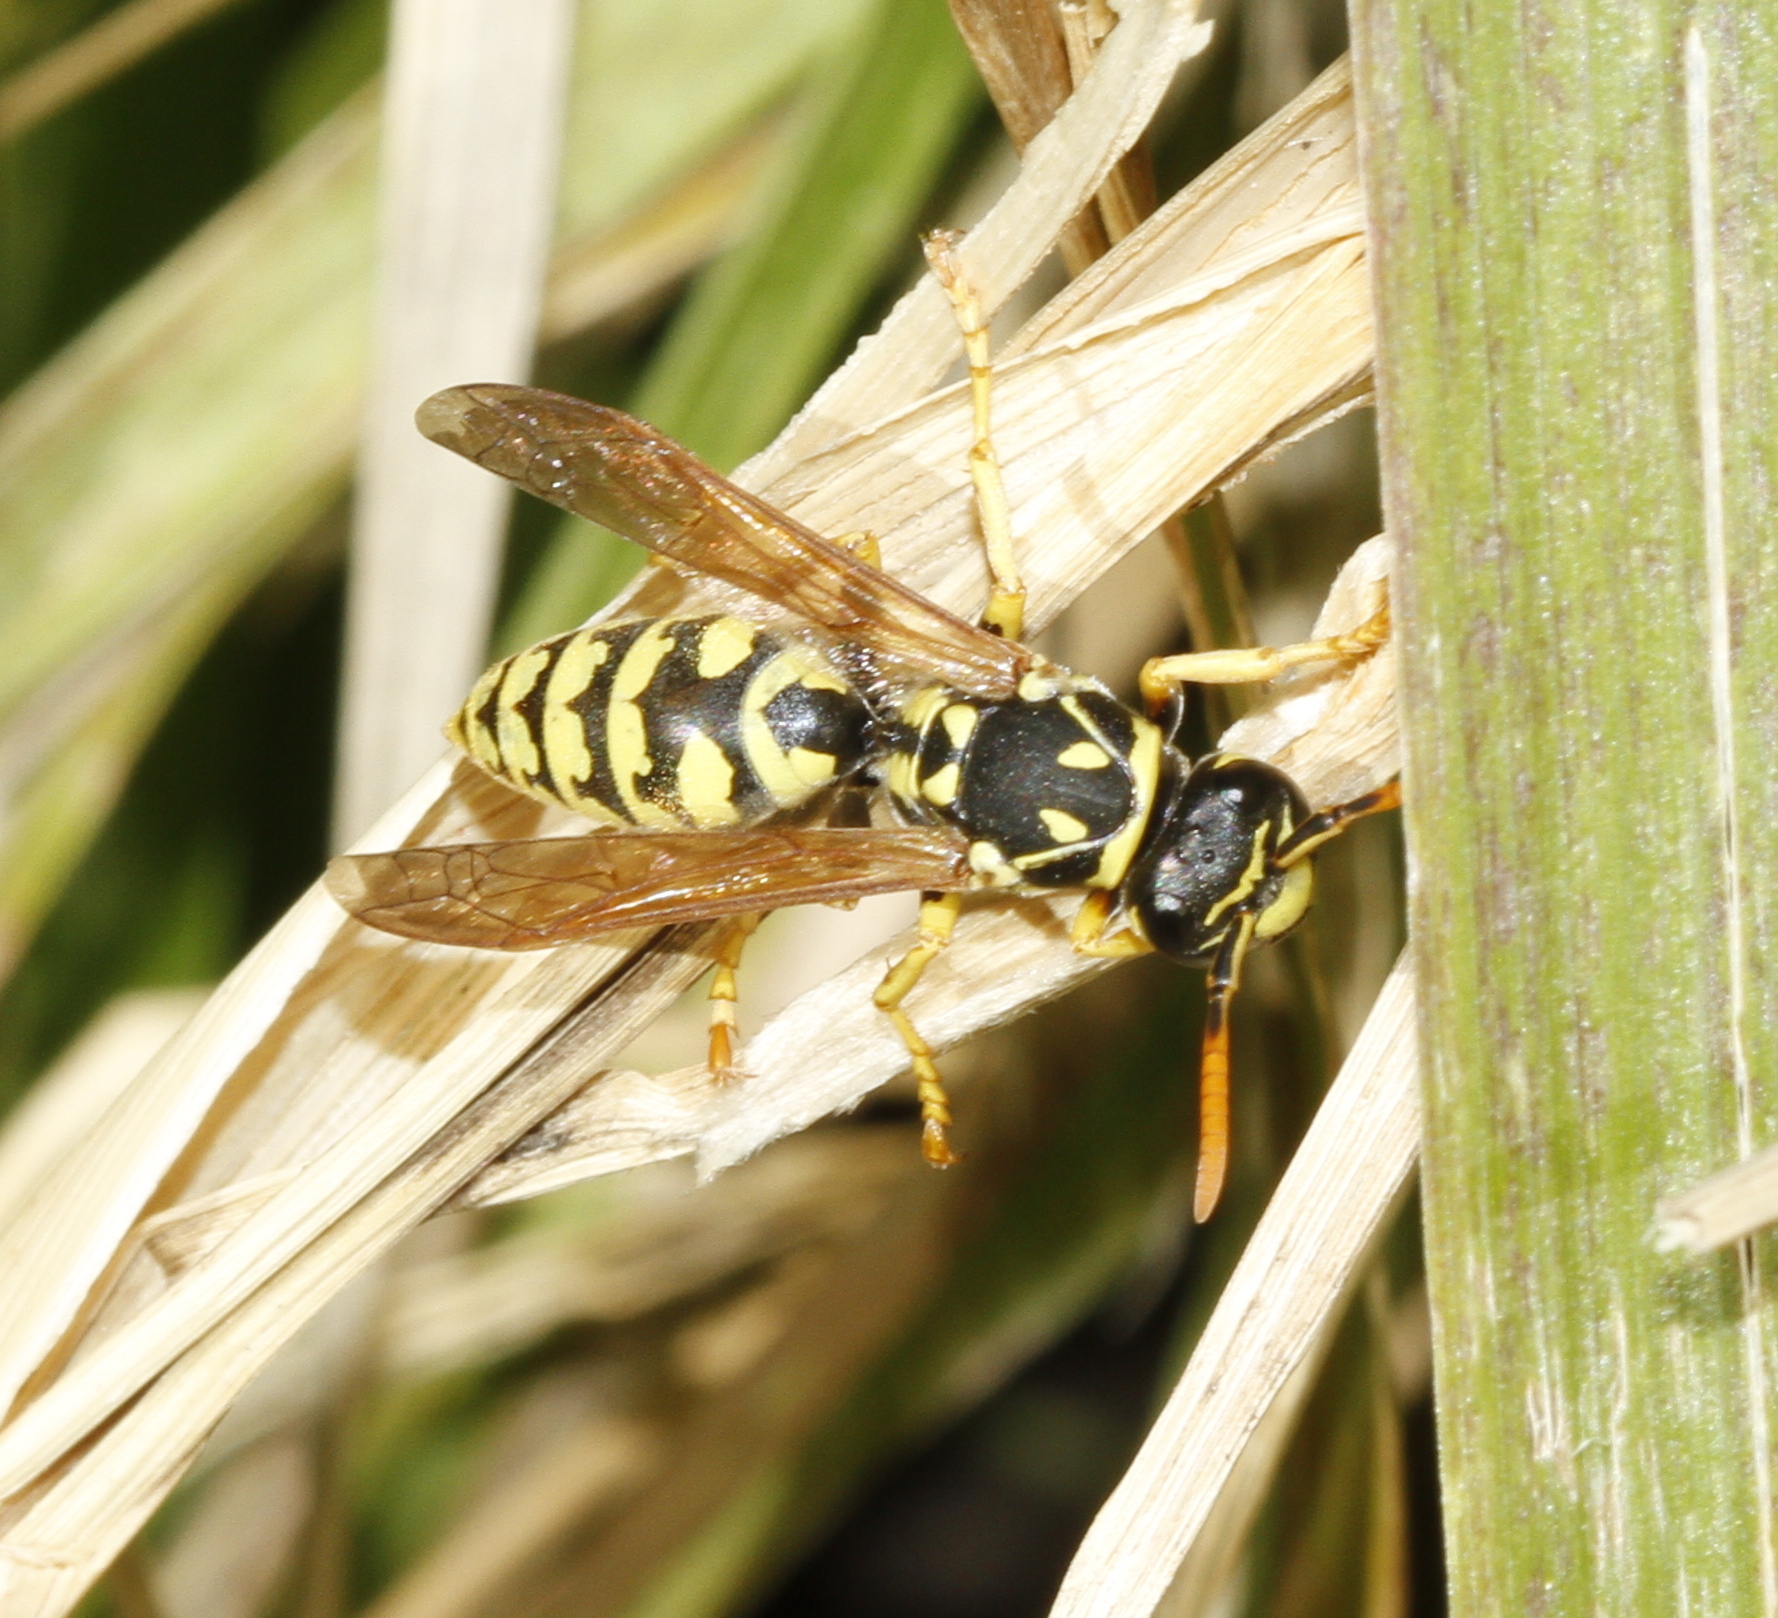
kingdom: Animalia
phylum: Arthropoda
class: Insecta
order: Hymenoptera
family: Eumenidae
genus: Polistes
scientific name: Polistes dominula
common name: Paper wasp
